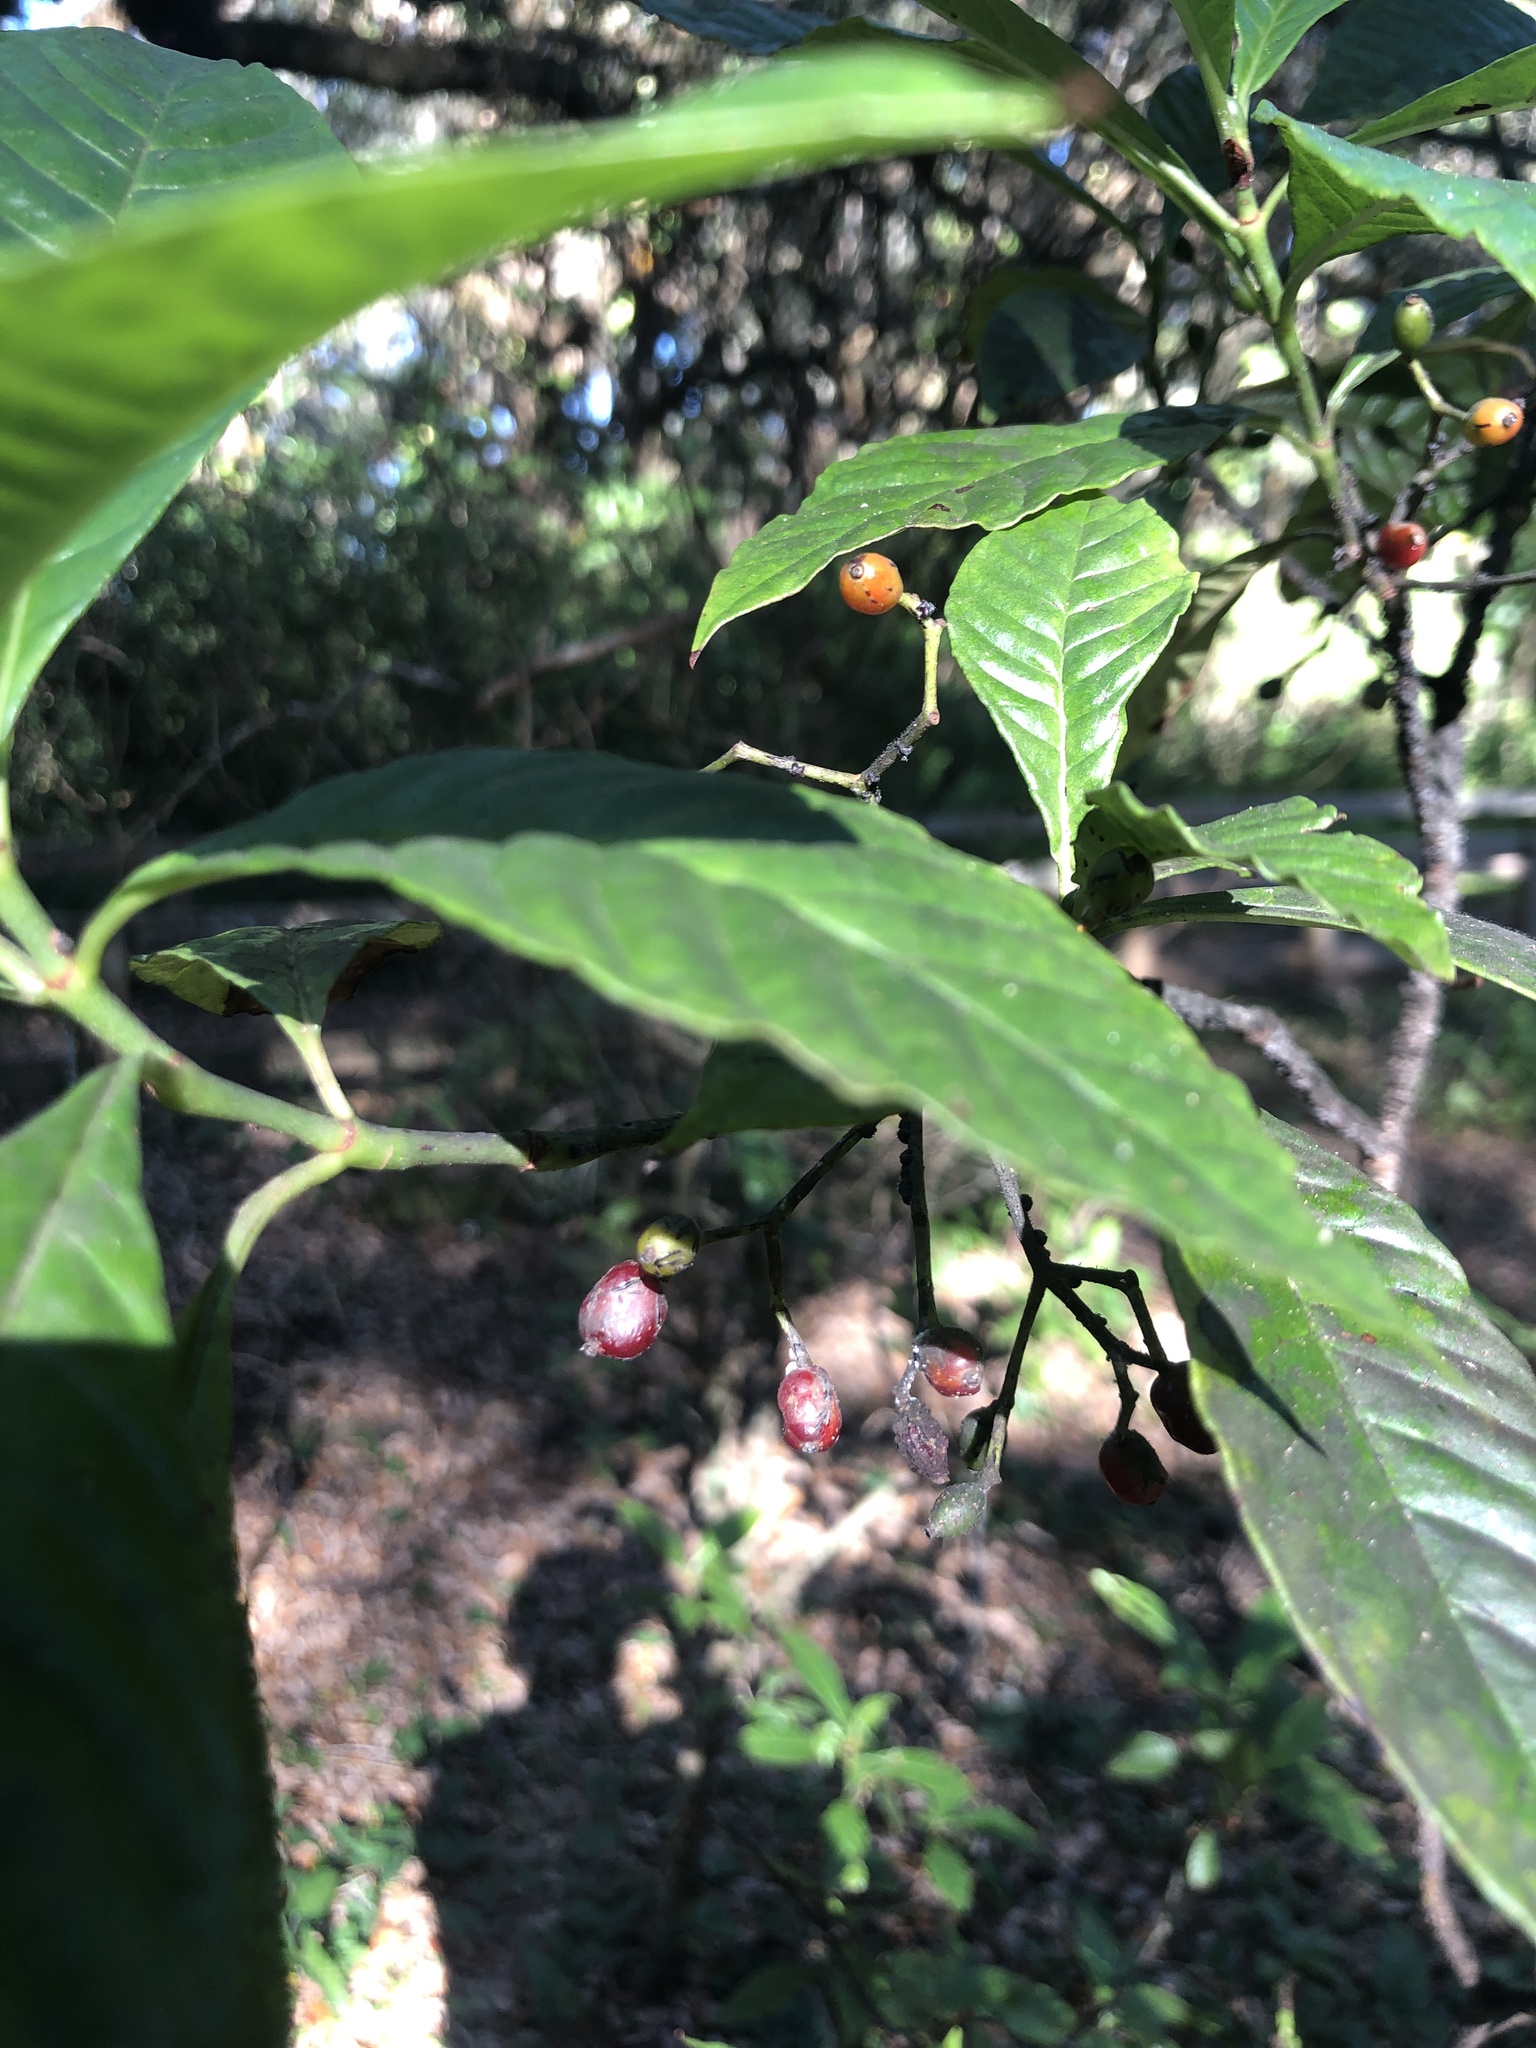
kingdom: Plantae
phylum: Tracheophyta
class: Magnoliopsida
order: Gentianales
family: Rubiaceae
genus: Psychotria
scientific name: Psychotria nervosa
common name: Bastard cankerberry
